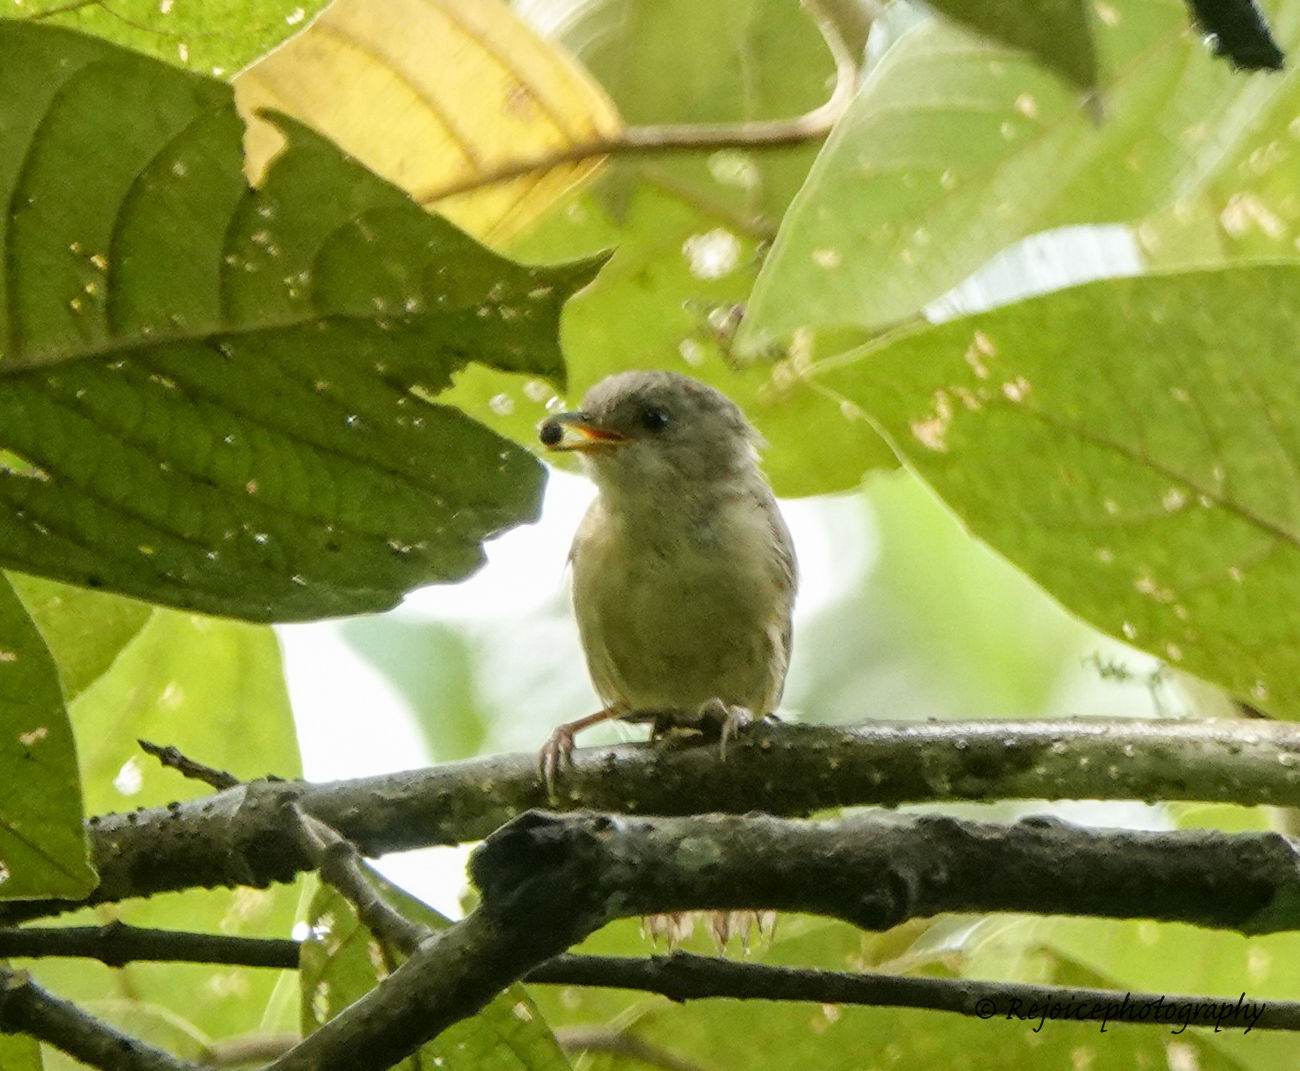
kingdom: Animalia
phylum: Chordata
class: Aves
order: Passeriformes
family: Pellorneidae
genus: Alcippe
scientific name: Alcippe poioicephala
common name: Brown-cheeked fulvetta
